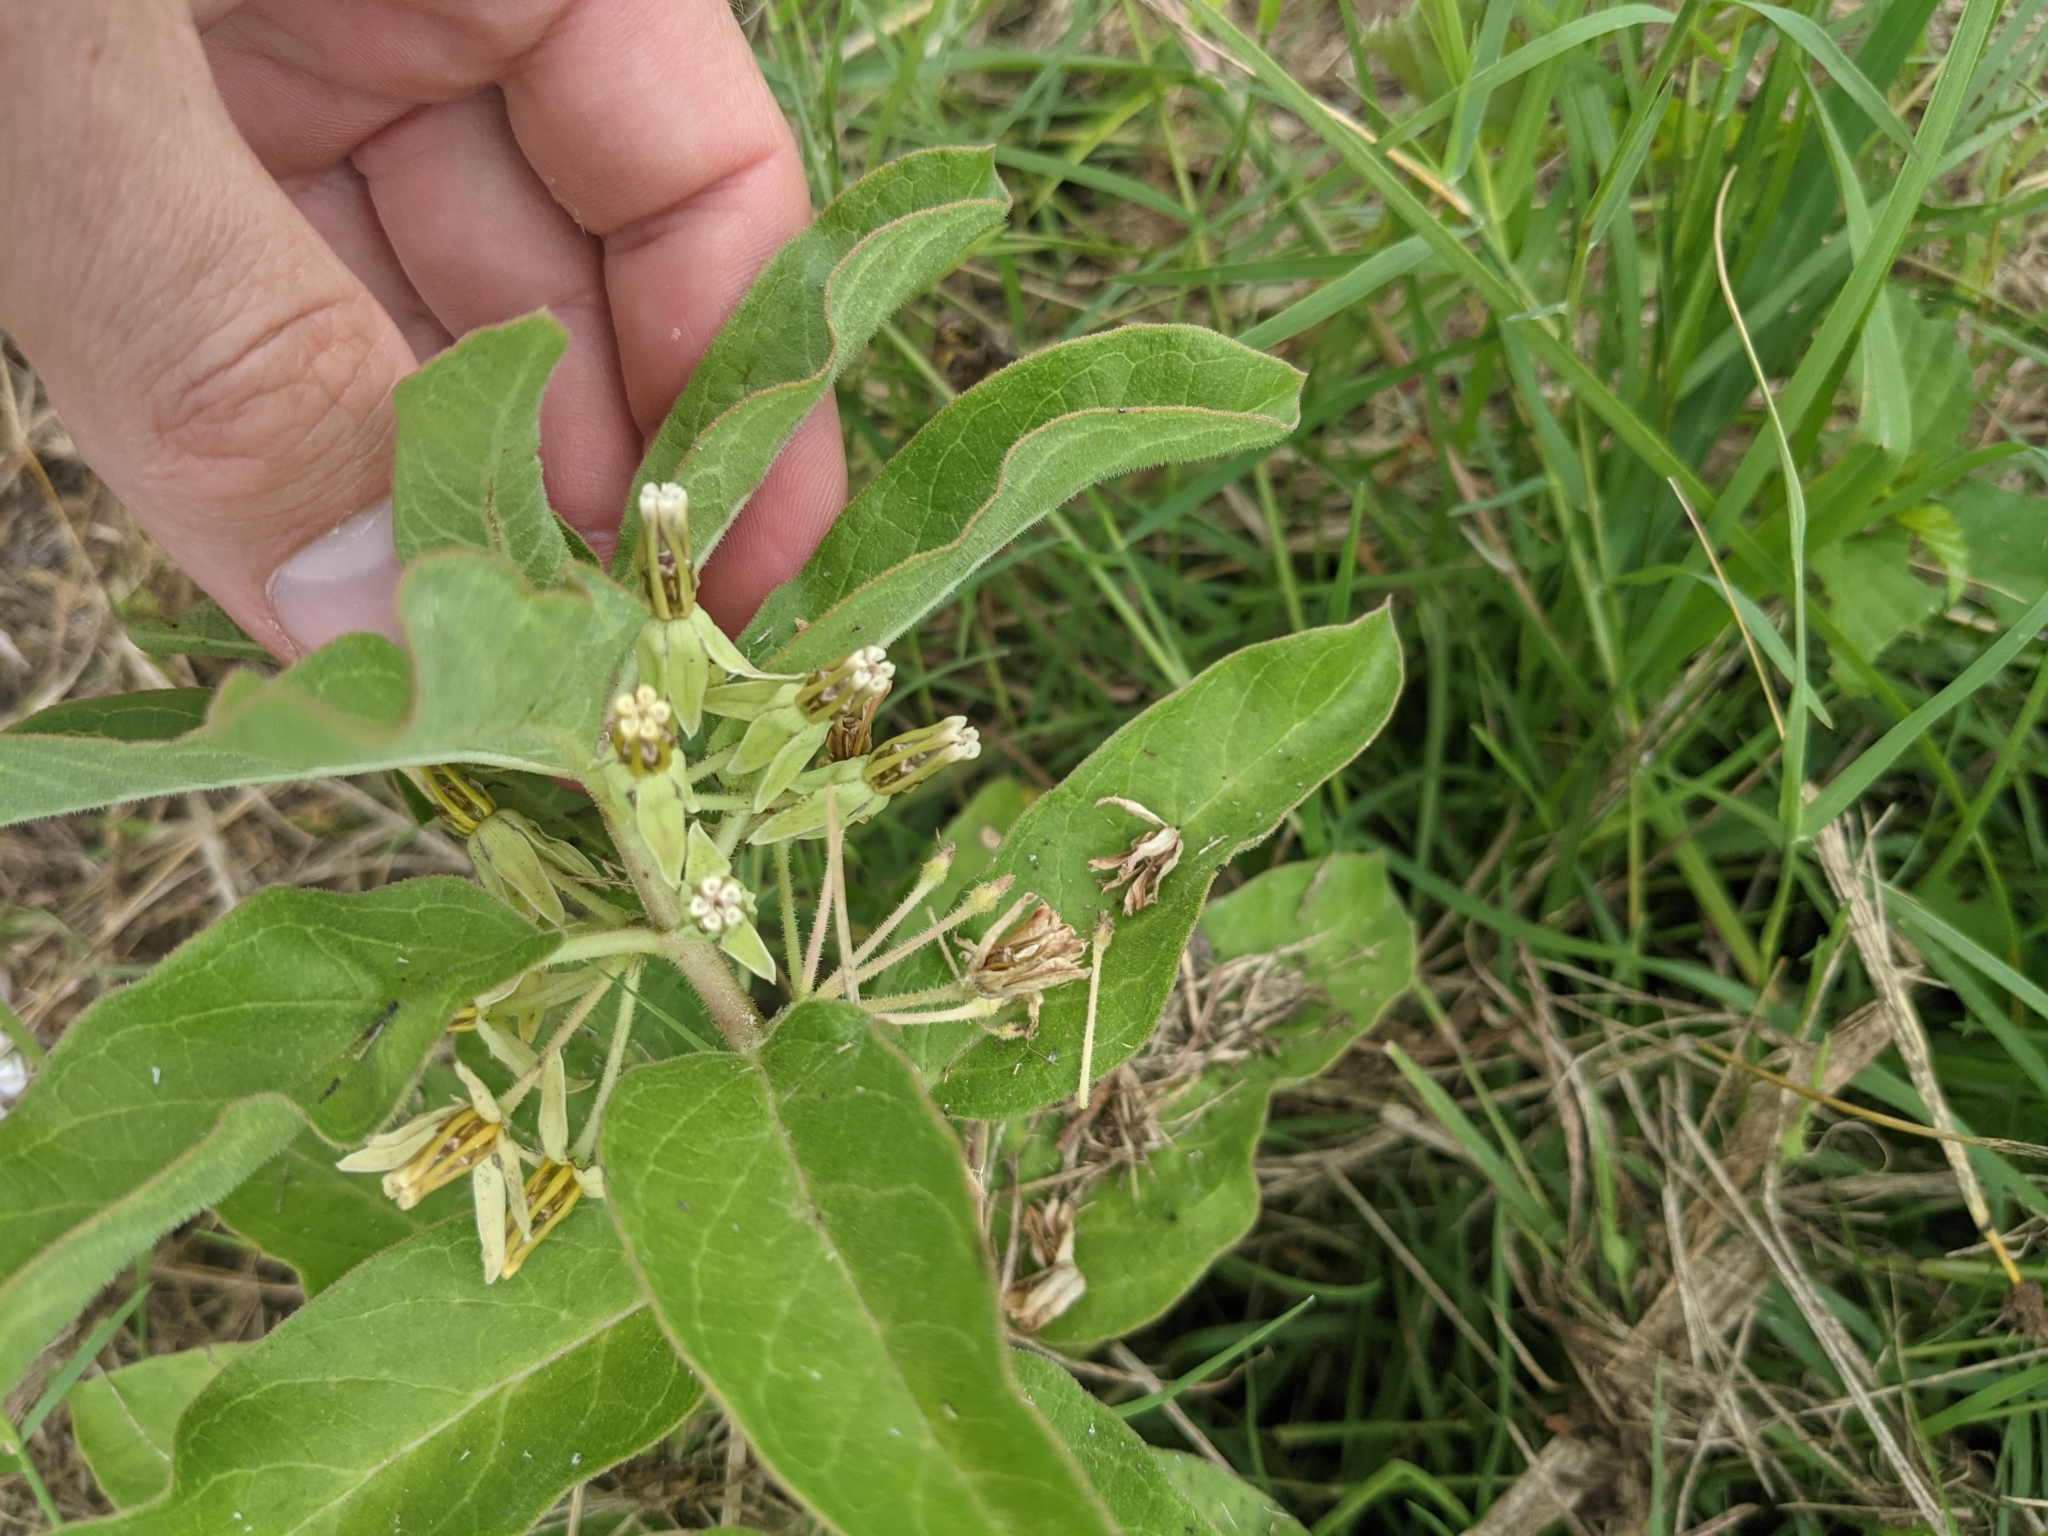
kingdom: Plantae
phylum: Tracheophyta
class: Magnoliopsida
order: Gentianales
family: Apocynaceae
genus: Asclepias
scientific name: Asclepias oenotheroides
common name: Zizotes milkweed
